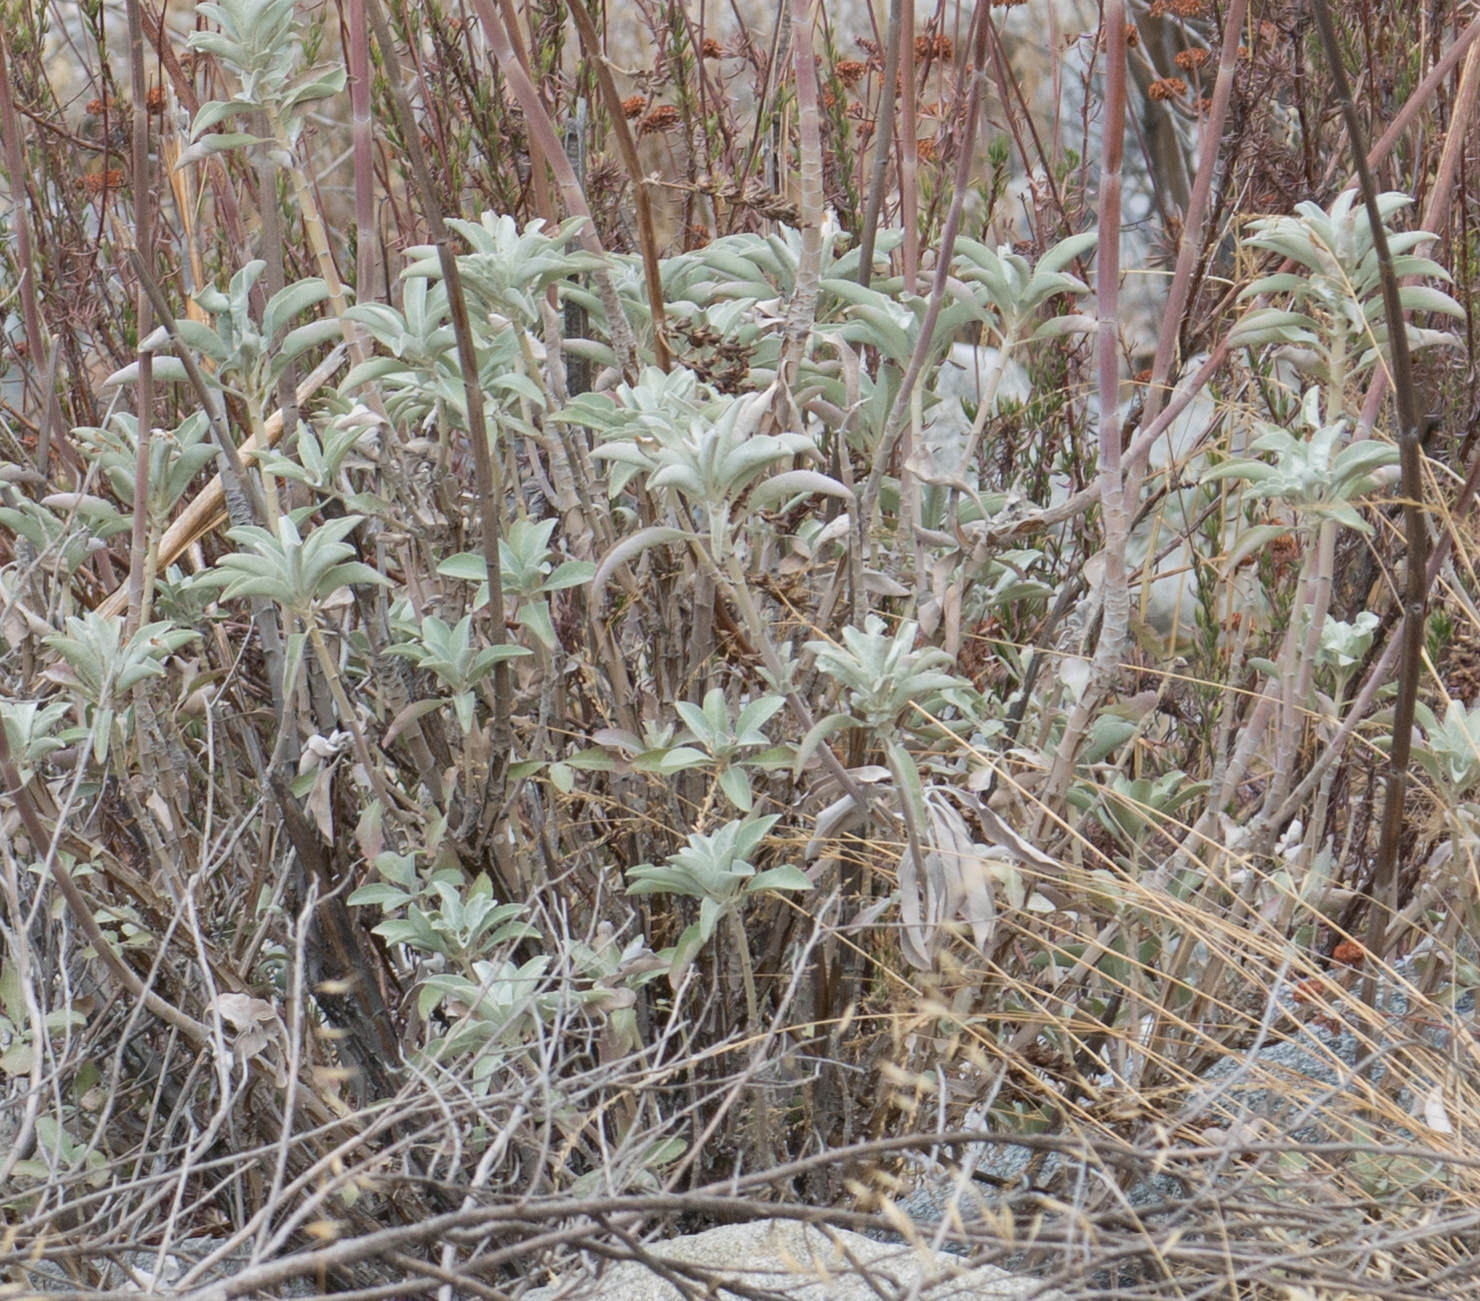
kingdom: Plantae
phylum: Tracheophyta
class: Magnoliopsida
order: Lamiales
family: Lamiaceae
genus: Salvia
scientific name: Salvia apiana
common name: White sage
